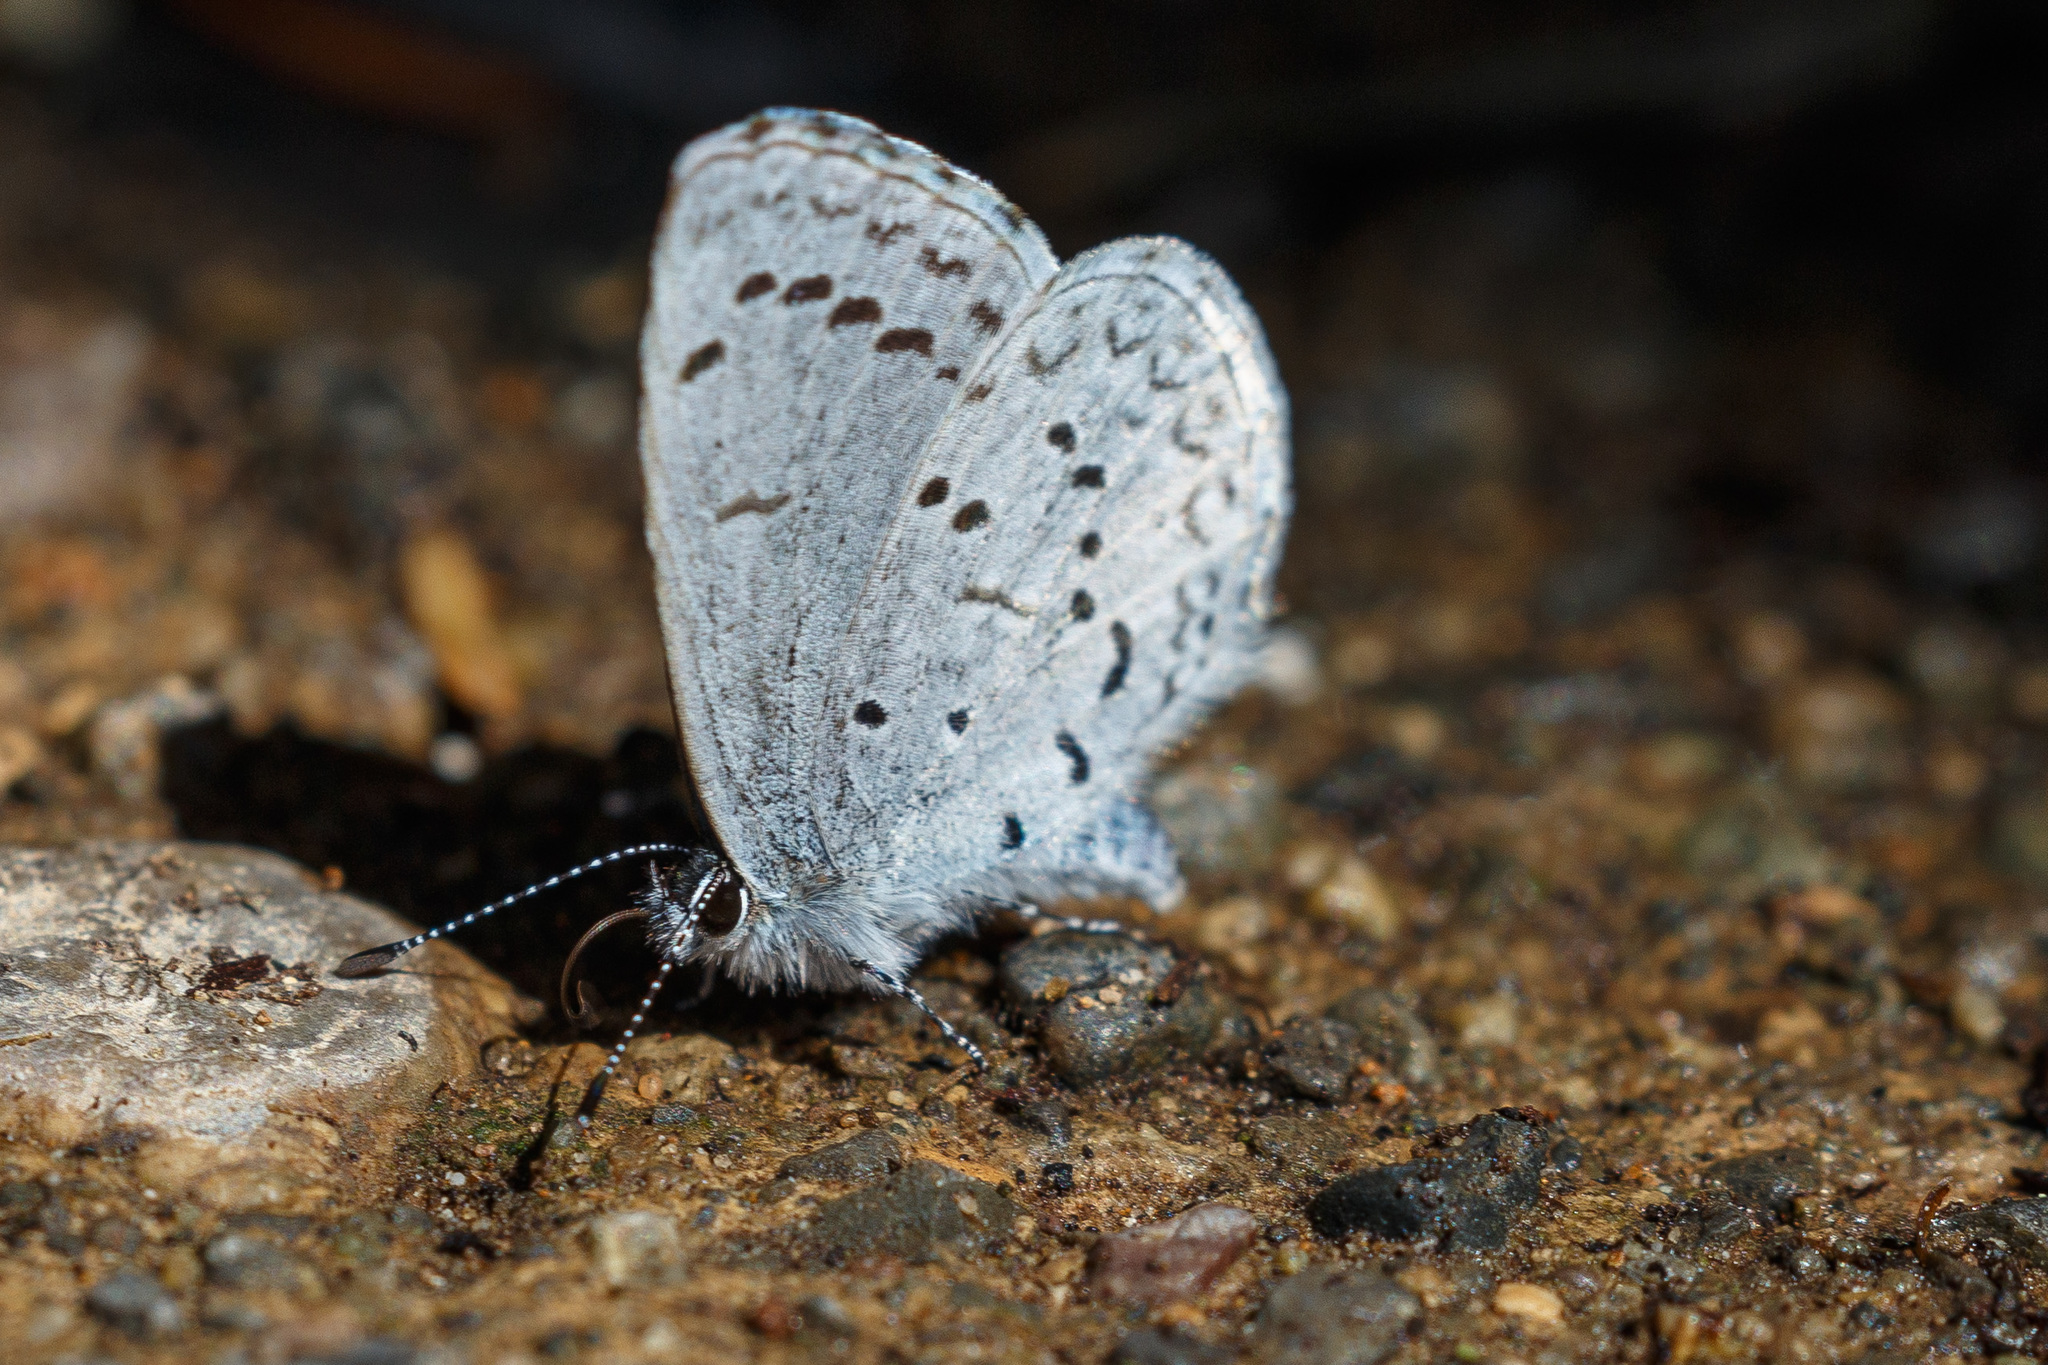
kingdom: Animalia
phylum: Arthropoda
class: Insecta
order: Lepidoptera
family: Lycaenidae
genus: Celastrina
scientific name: Celastrina ladon
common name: Spring azure
